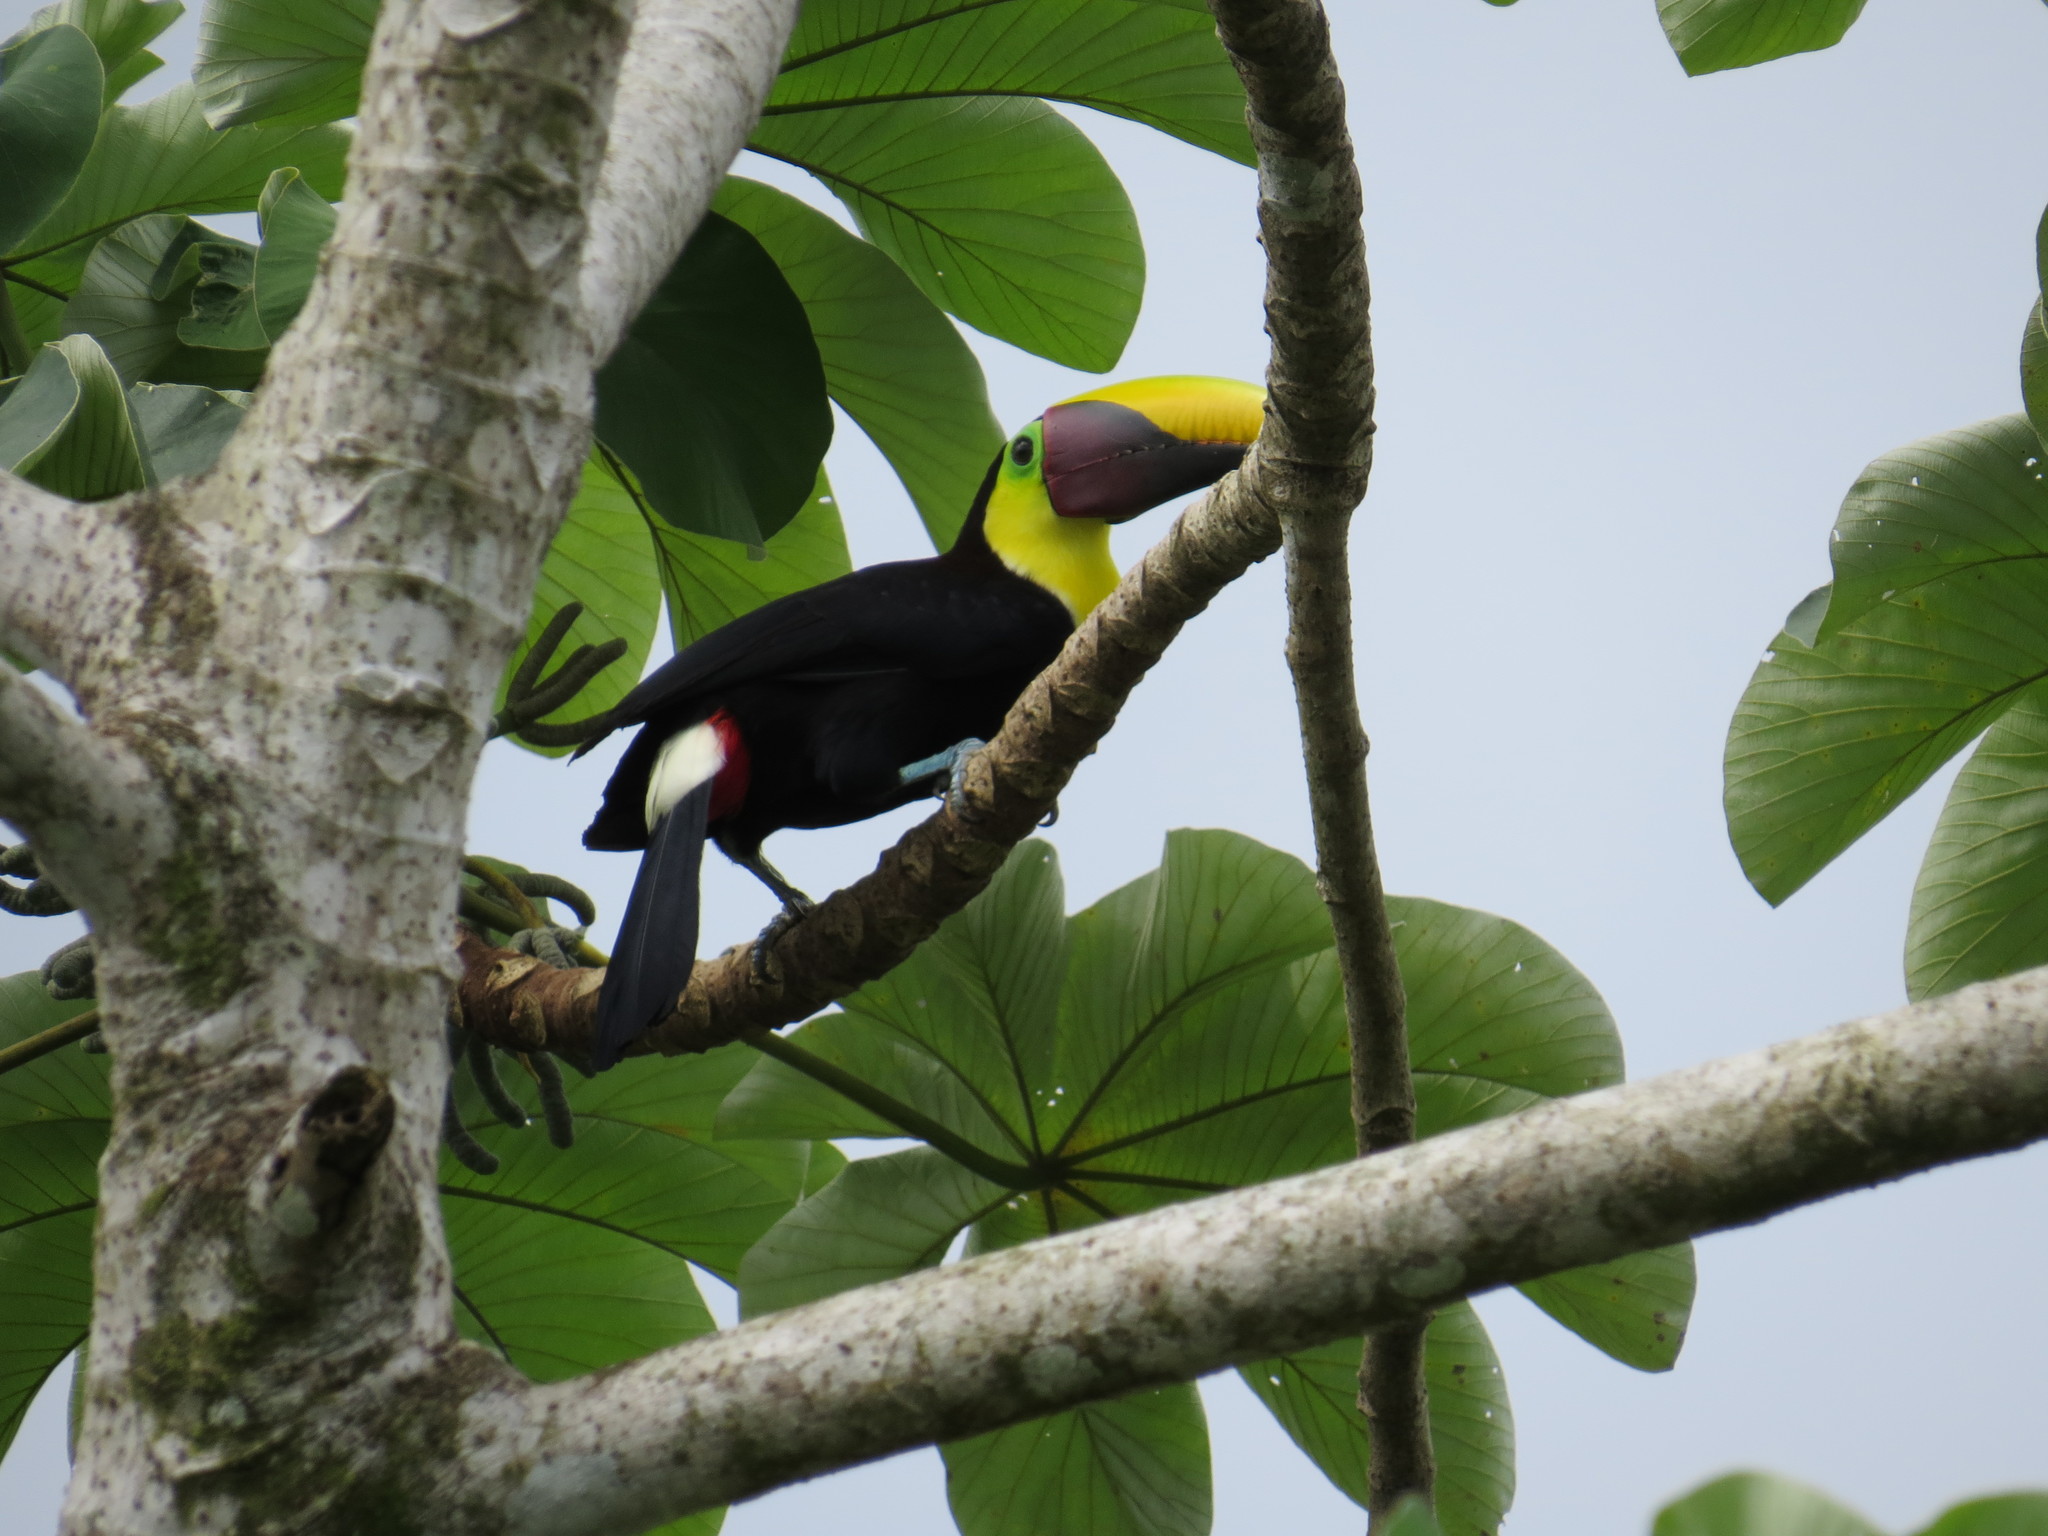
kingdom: Animalia
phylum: Chordata
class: Aves
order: Piciformes
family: Ramphastidae
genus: Ramphastos
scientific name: Ramphastos ambiguus
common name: Yellow-throated toucan
